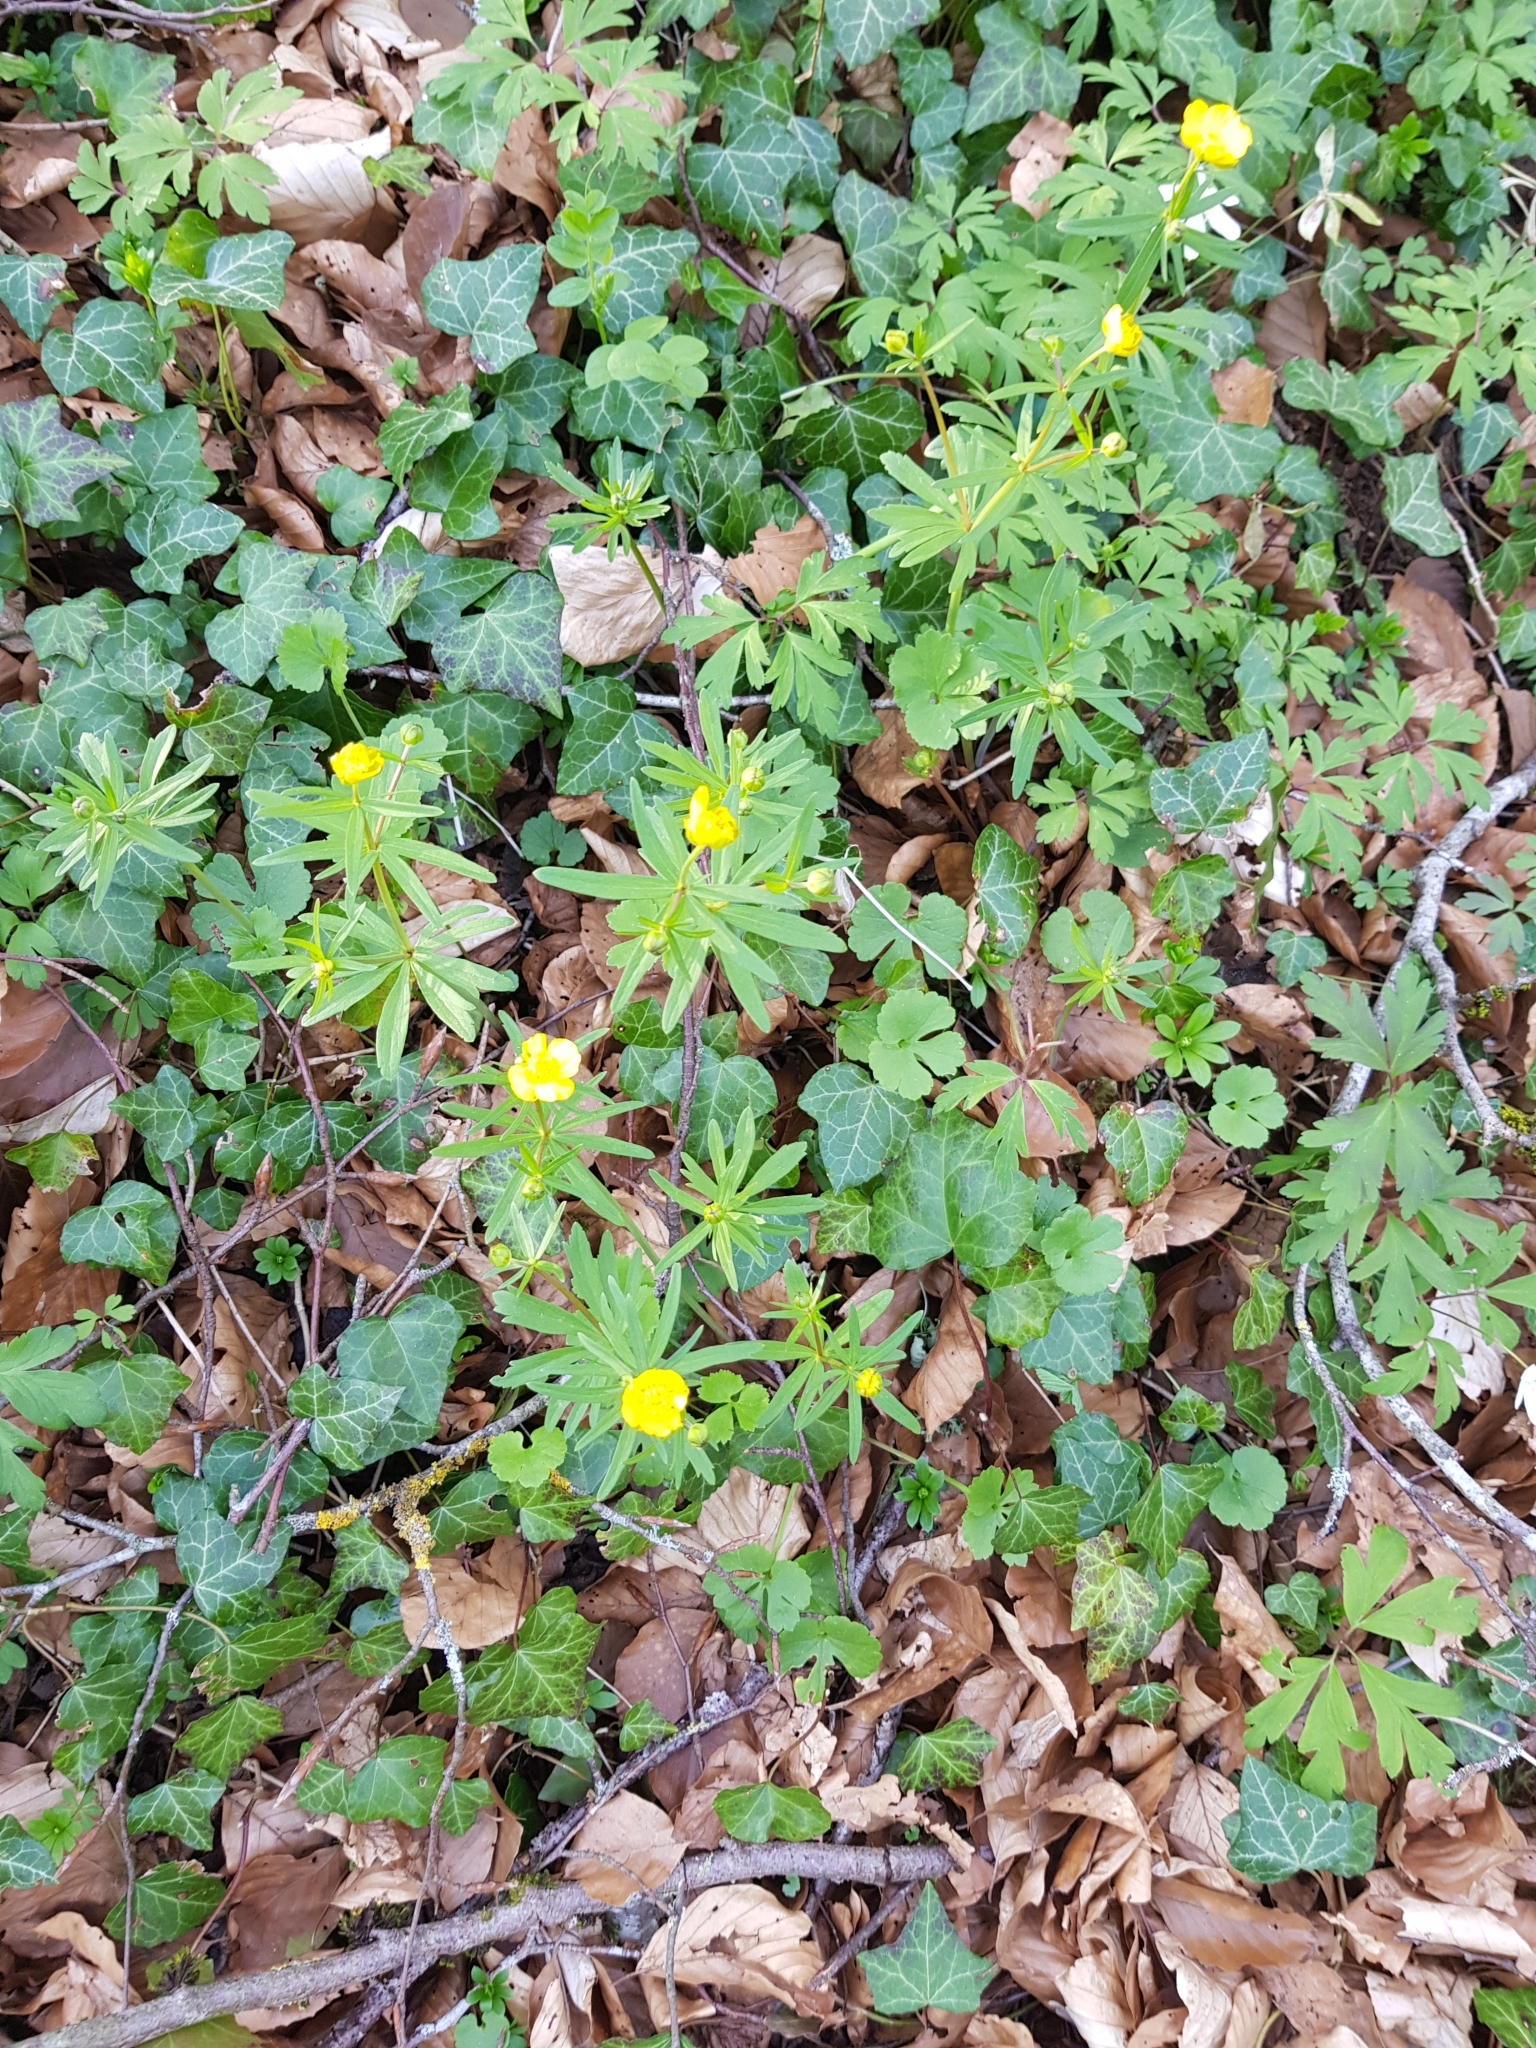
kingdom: Plantae
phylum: Tracheophyta
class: Magnoliopsida
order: Ranunculales
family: Ranunculaceae
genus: Ranunculus
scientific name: Ranunculus auricomus
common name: Goldilocks buttercup
